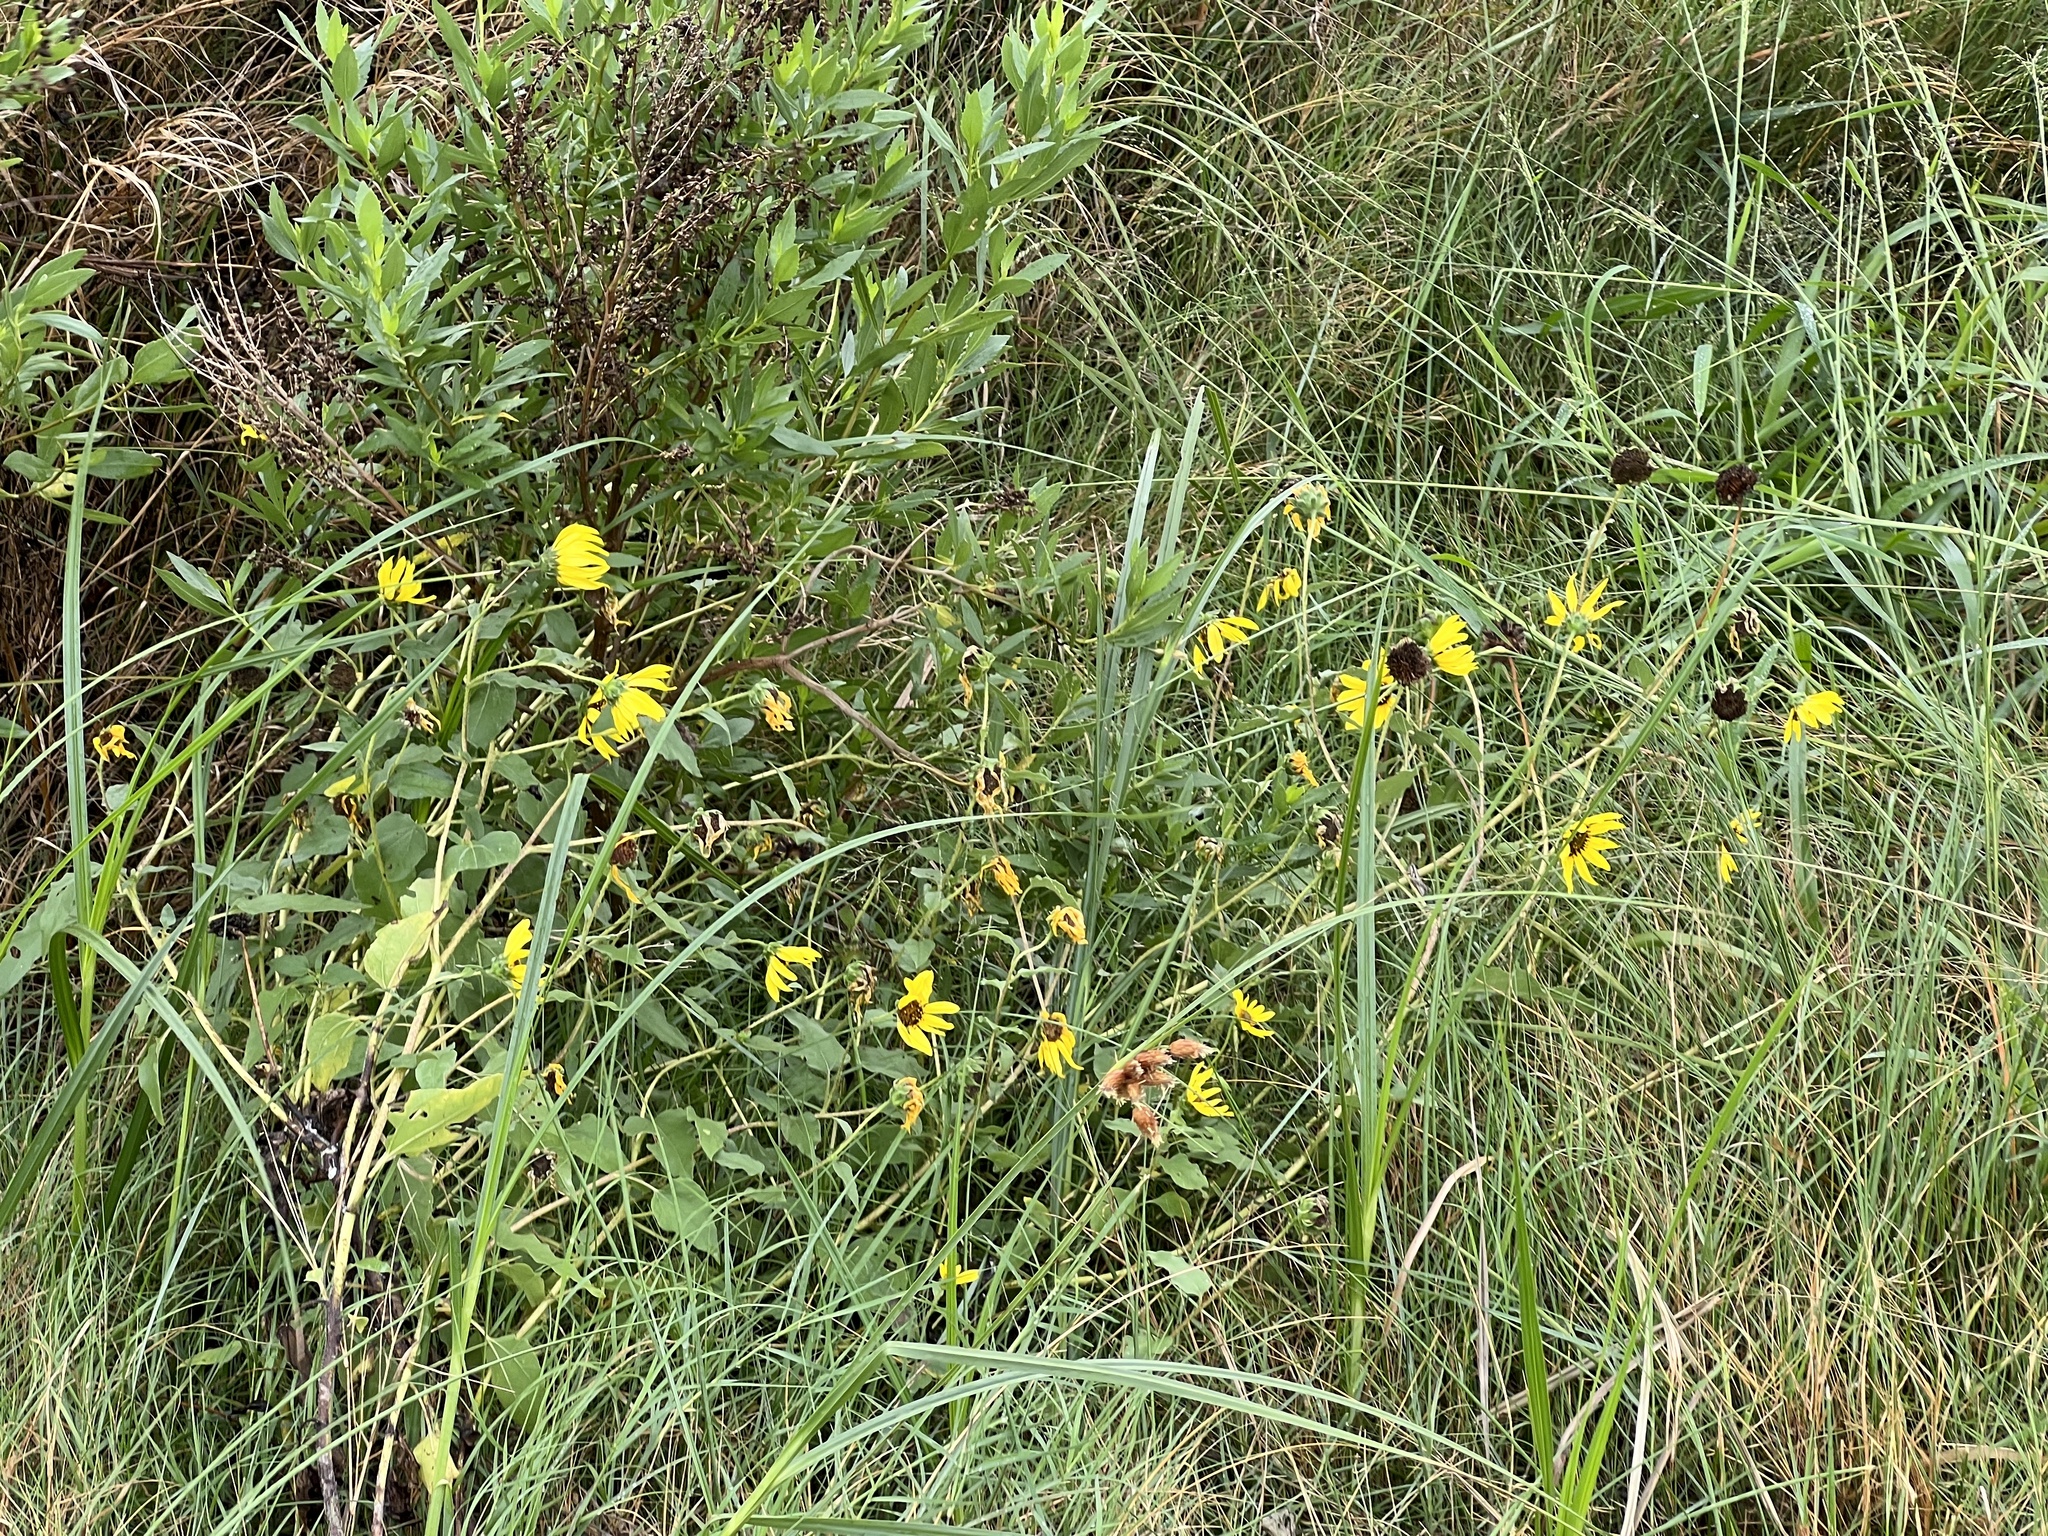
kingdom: Plantae
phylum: Tracheophyta
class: Magnoliopsida
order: Asterales
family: Asteraceae
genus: Helianthus
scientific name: Helianthus annuus
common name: Sunflower
